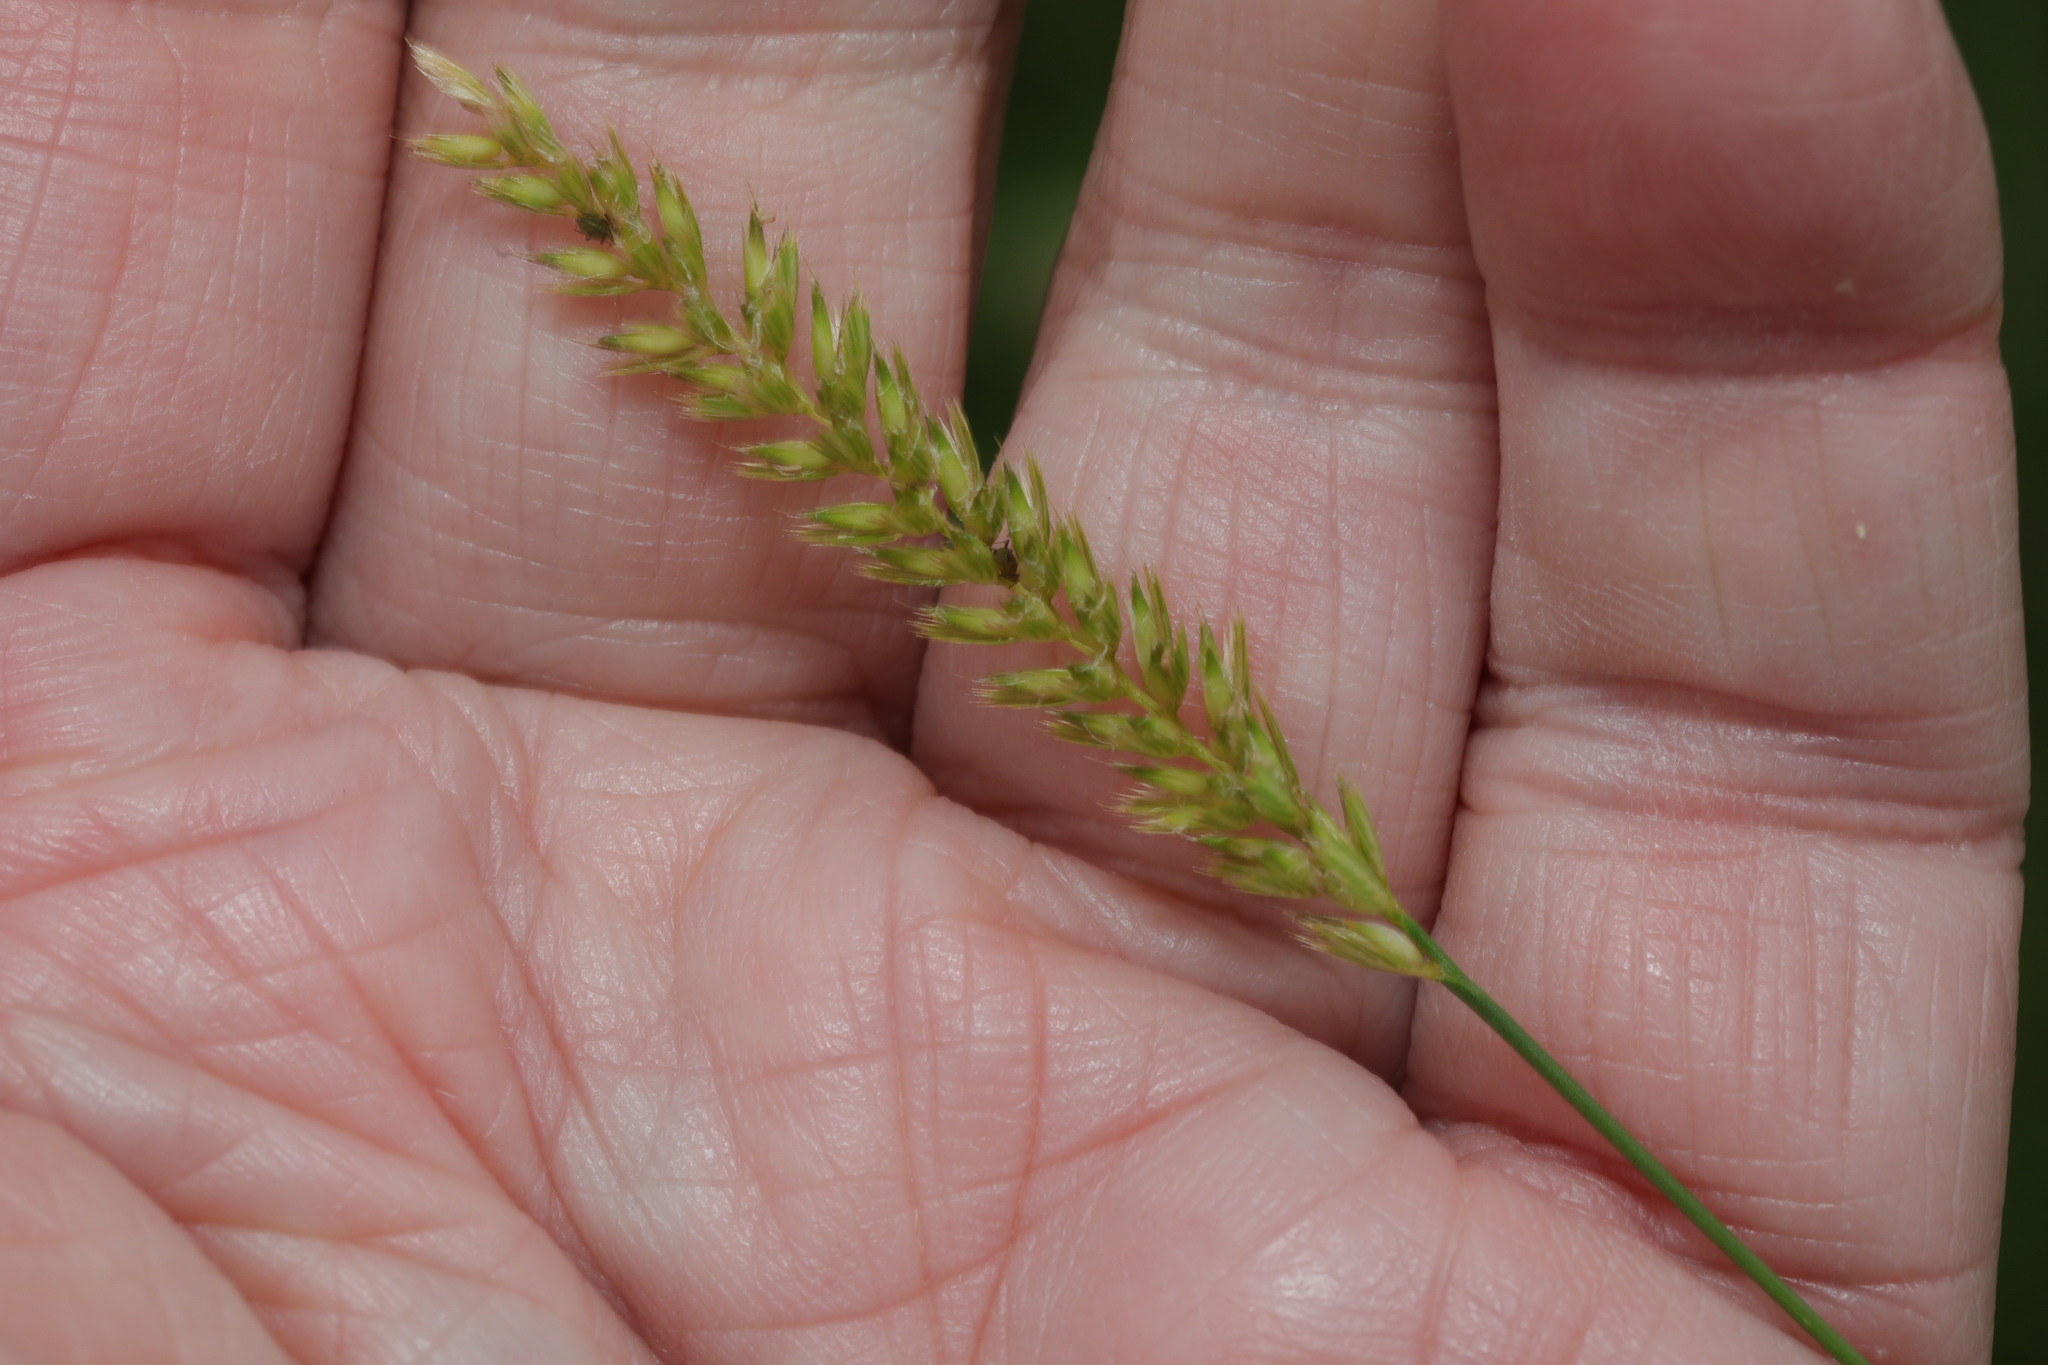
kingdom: Plantae
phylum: Tracheophyta
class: Liliopsida
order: Poales
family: Poaceae
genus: Cynosurus
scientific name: Cynosurus cristatus
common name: Crested dog's-tail
